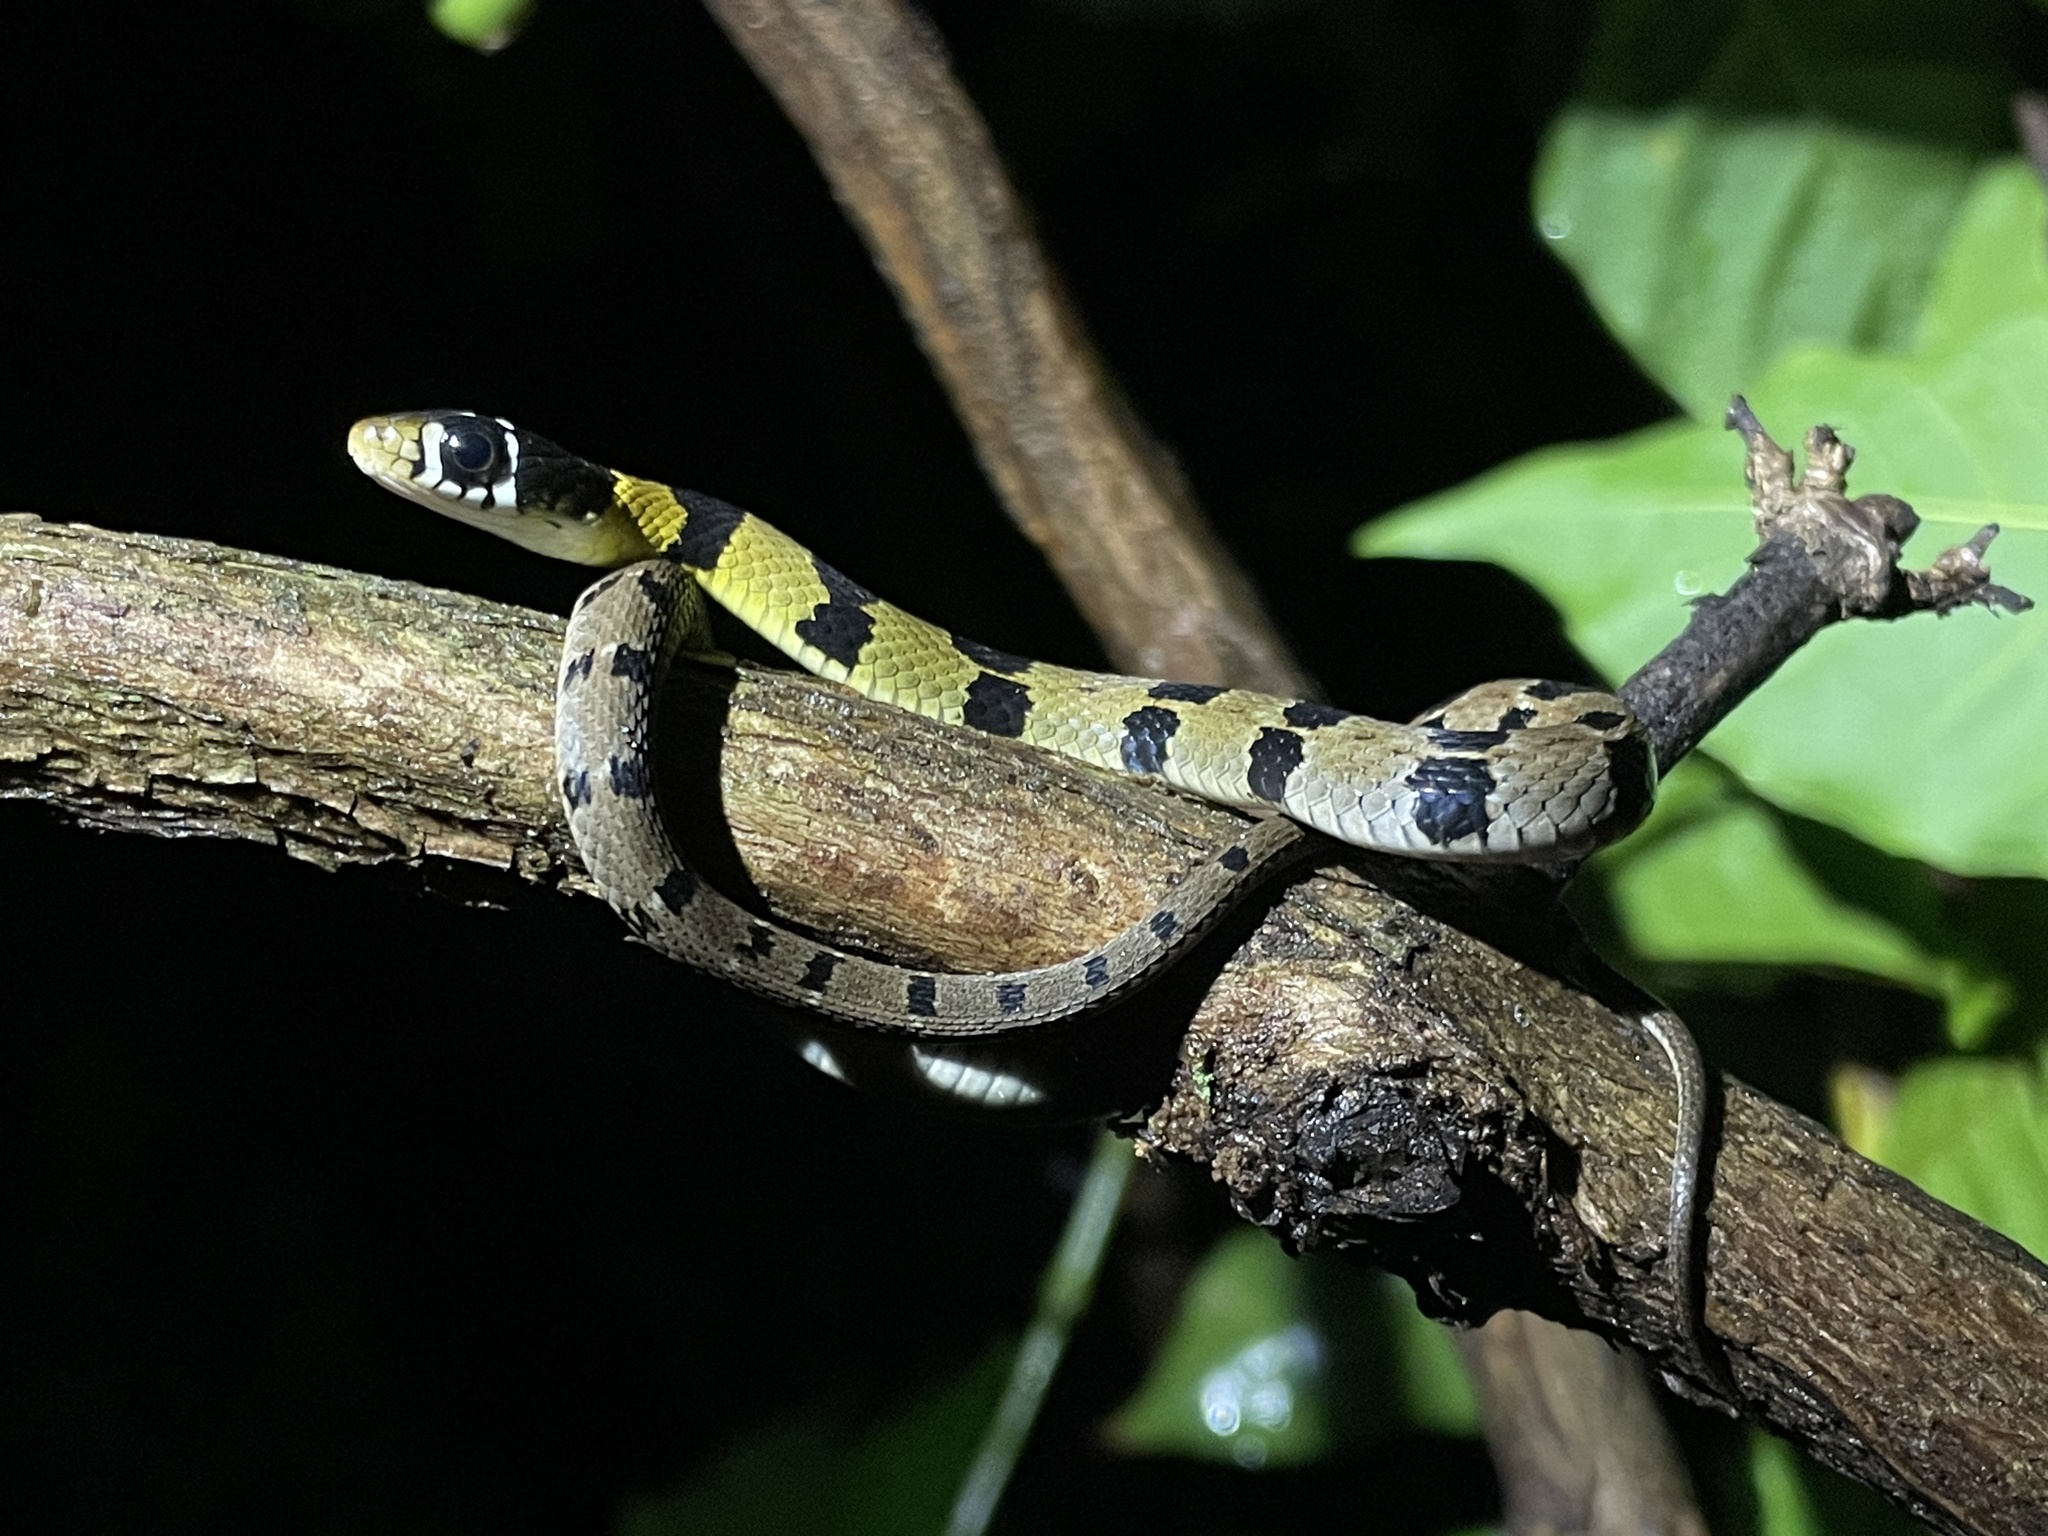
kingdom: Animalia
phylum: Chordata
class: Squamata
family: Colubridae
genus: Hebius
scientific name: Hebius monticola
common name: Wynad keelback
